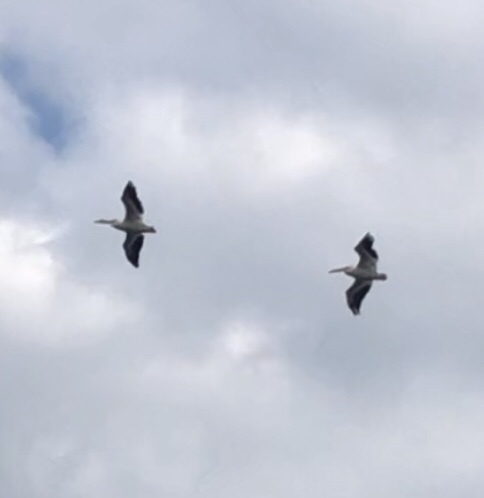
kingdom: Animalia
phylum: Chordata
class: Aves
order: Pelecaniformes
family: Pelecanidae
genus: Pelecanus
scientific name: Pelecanus erythrorhynchos
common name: American white pelican
